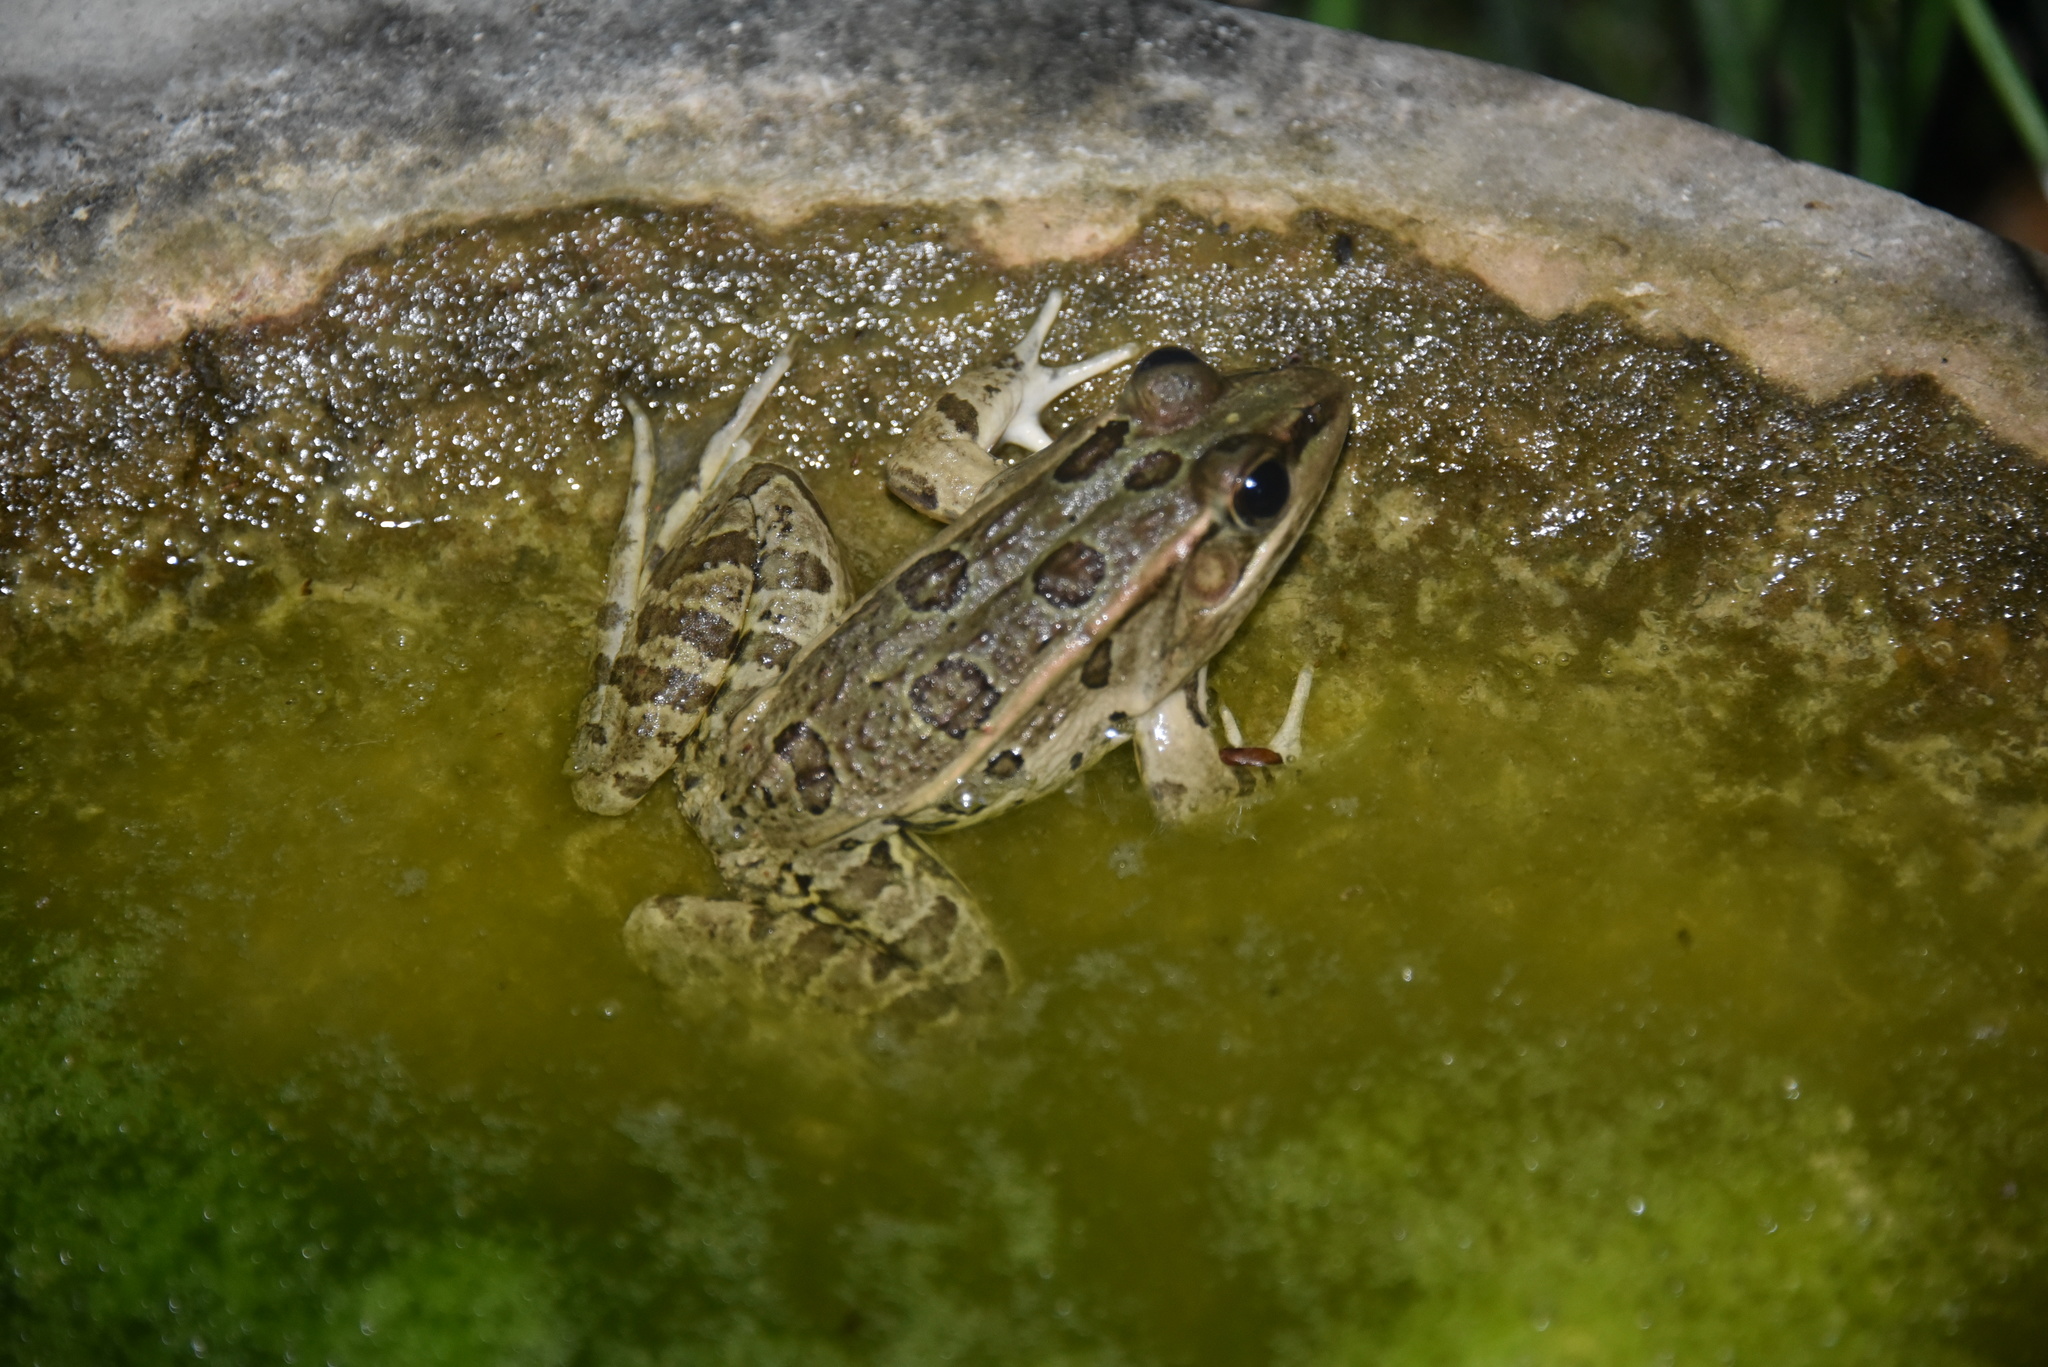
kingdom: Animalia
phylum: Chordata
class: Amphibia
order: Anura
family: Ranidae
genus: Lithobates
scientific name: Lithobates berlandieri
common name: Rio grande leopard frog
